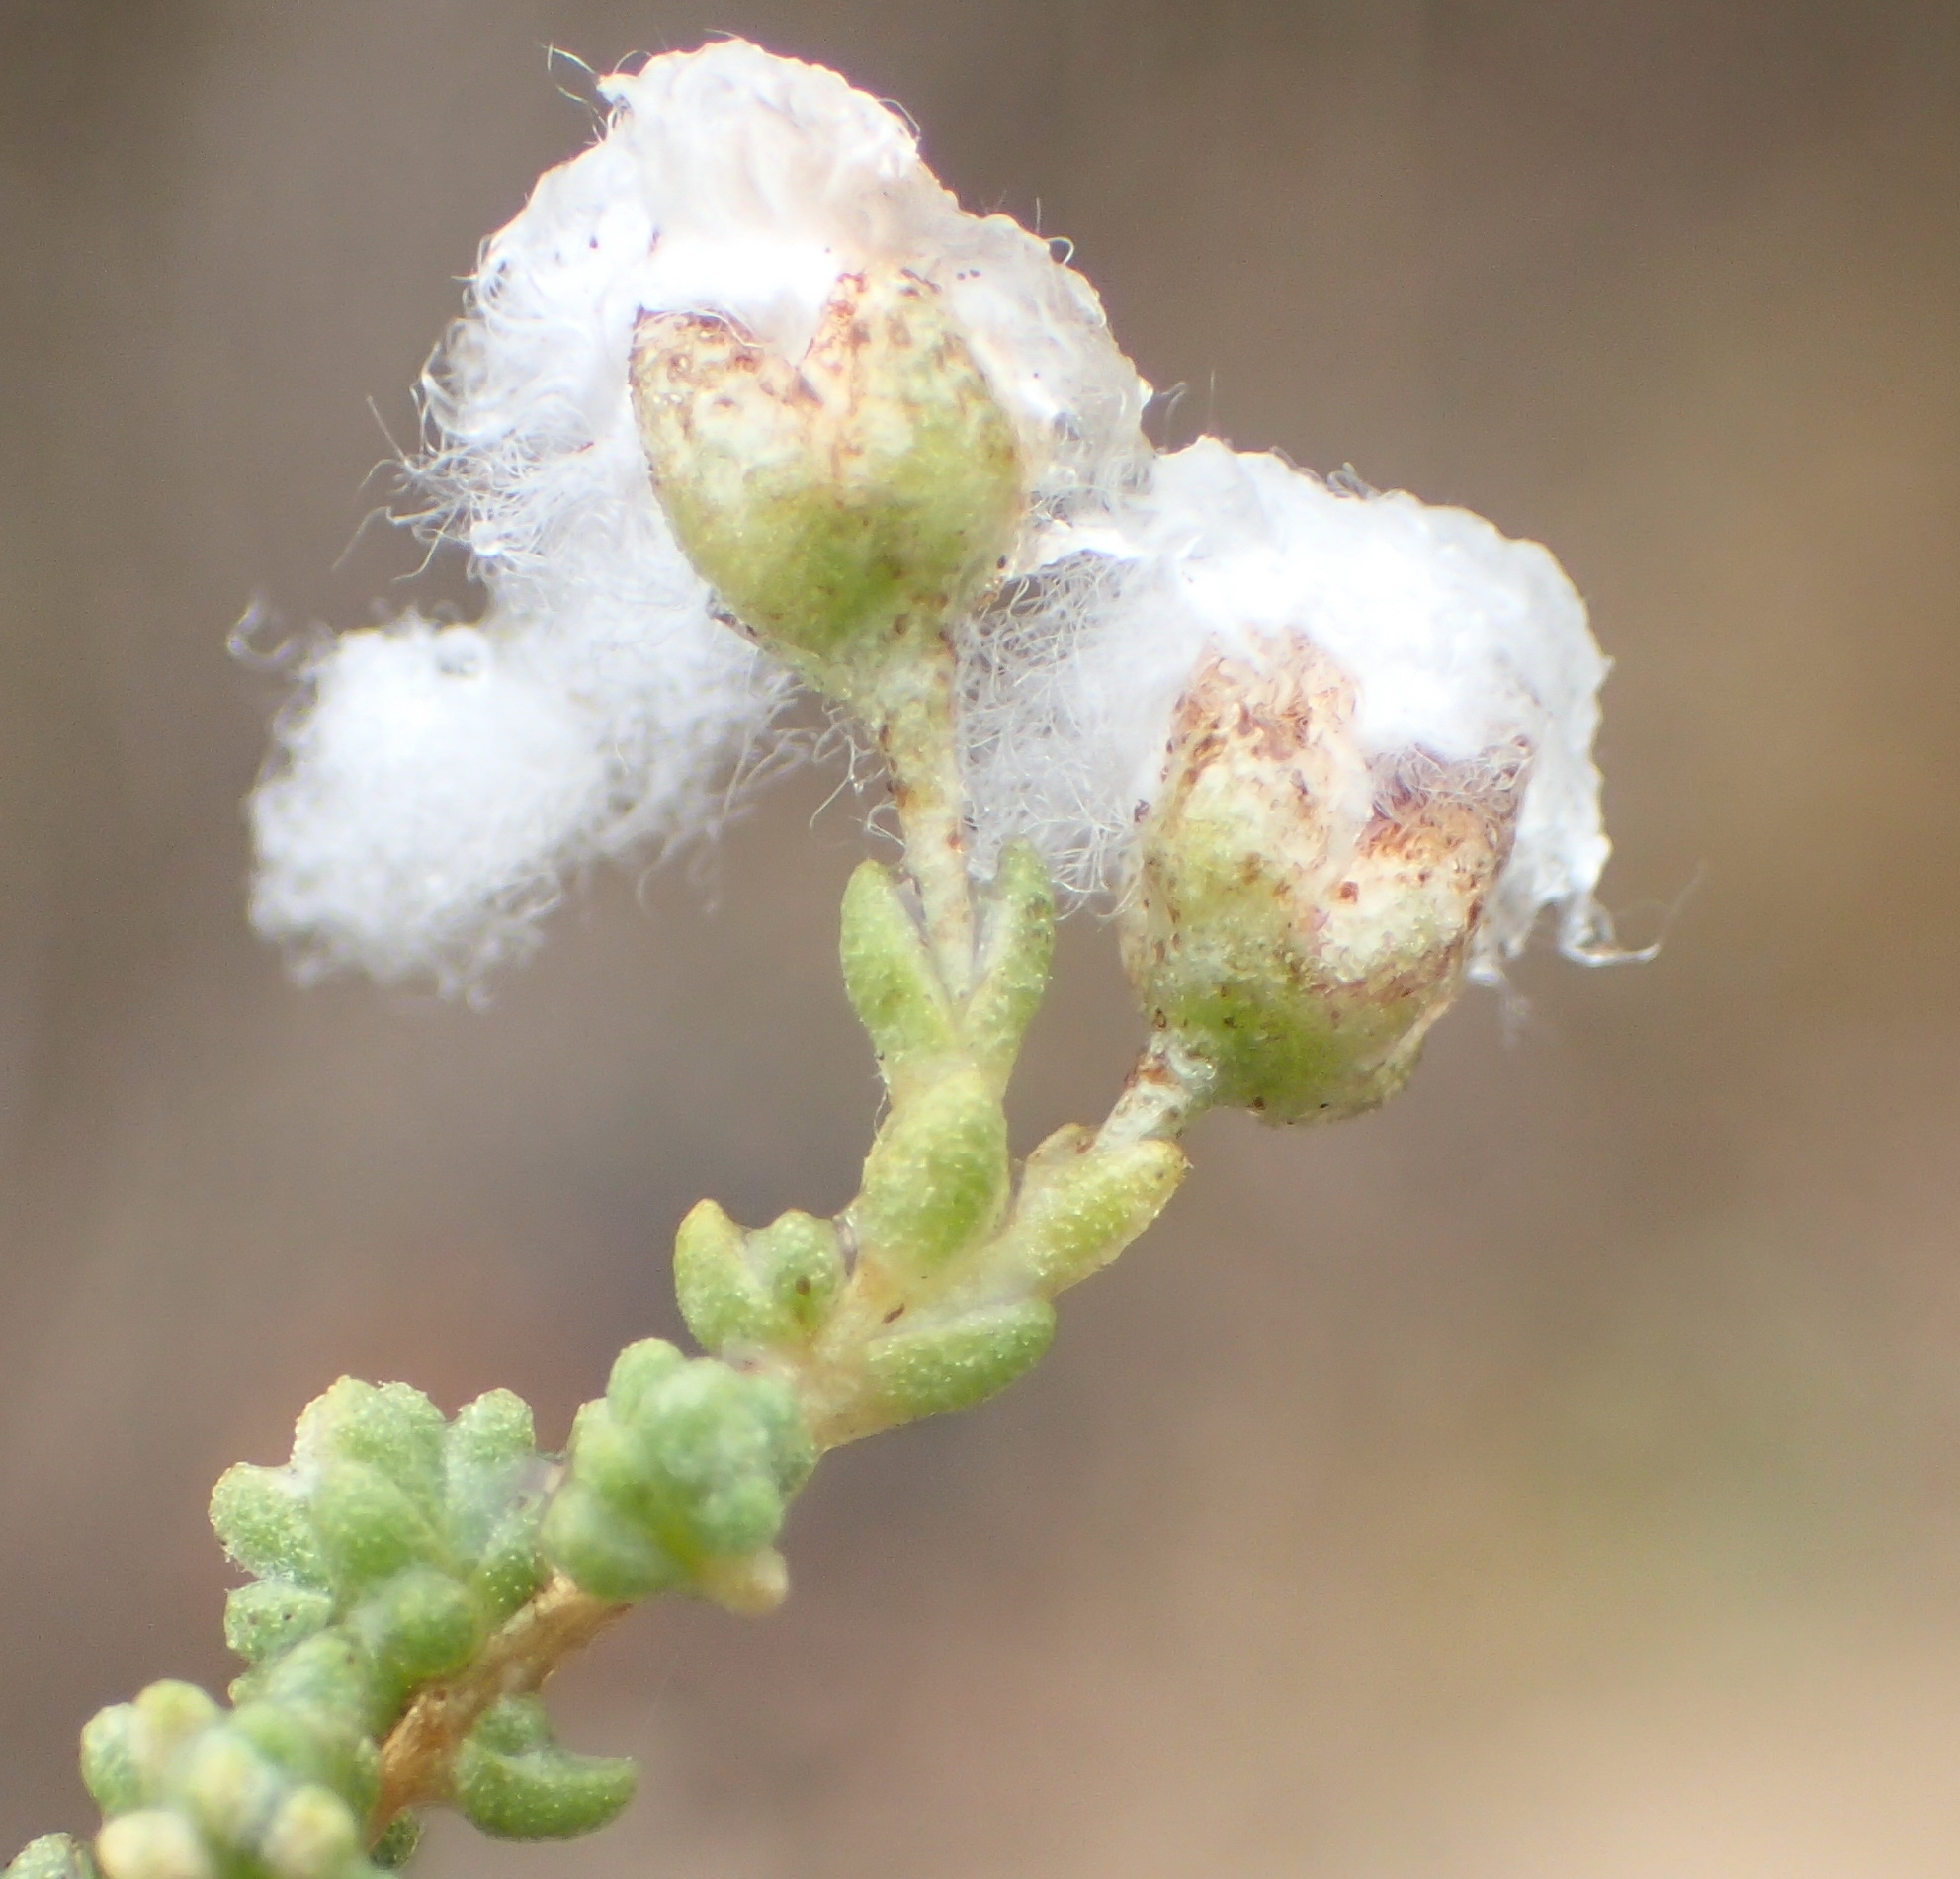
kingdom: Plantae
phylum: Tracheophyta
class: Magnoliopsida
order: Asterales
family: Asteraceae
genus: Eriocephalus
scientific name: Eriocephalus ericoides
